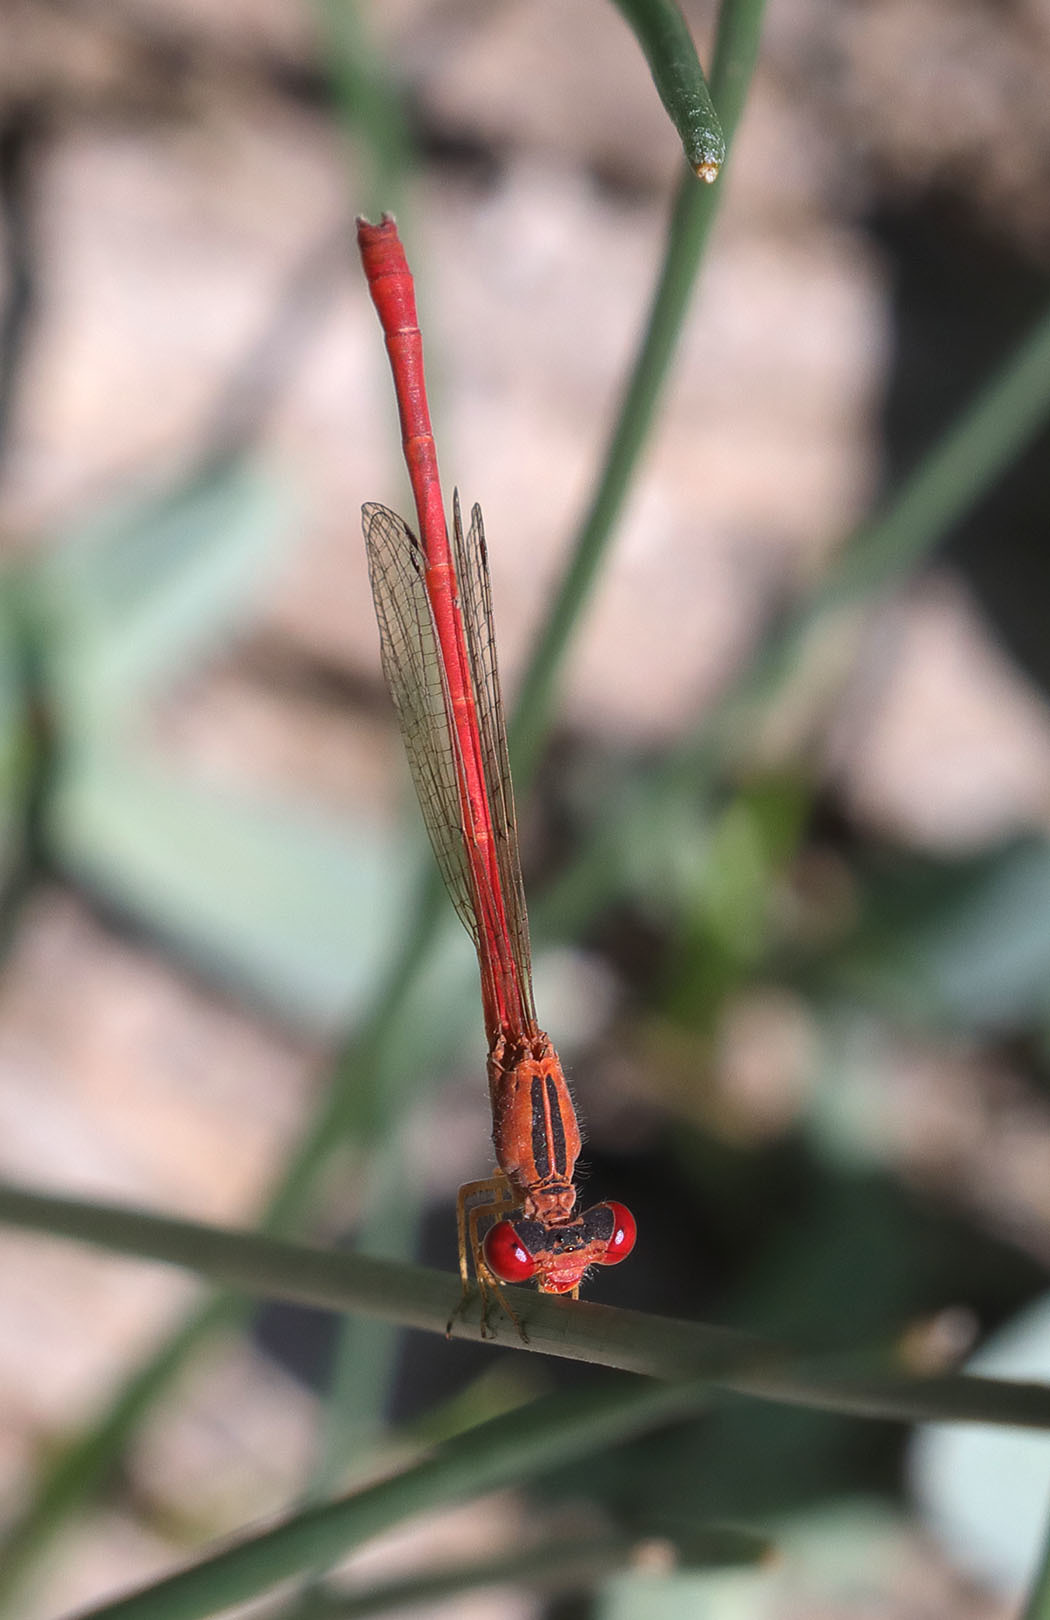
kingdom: Animalia
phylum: Arthropoda
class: Insecta
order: Odonata
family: Coenagrionidae
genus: Telebasis
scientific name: Telebasis salva
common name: Desert firetail
